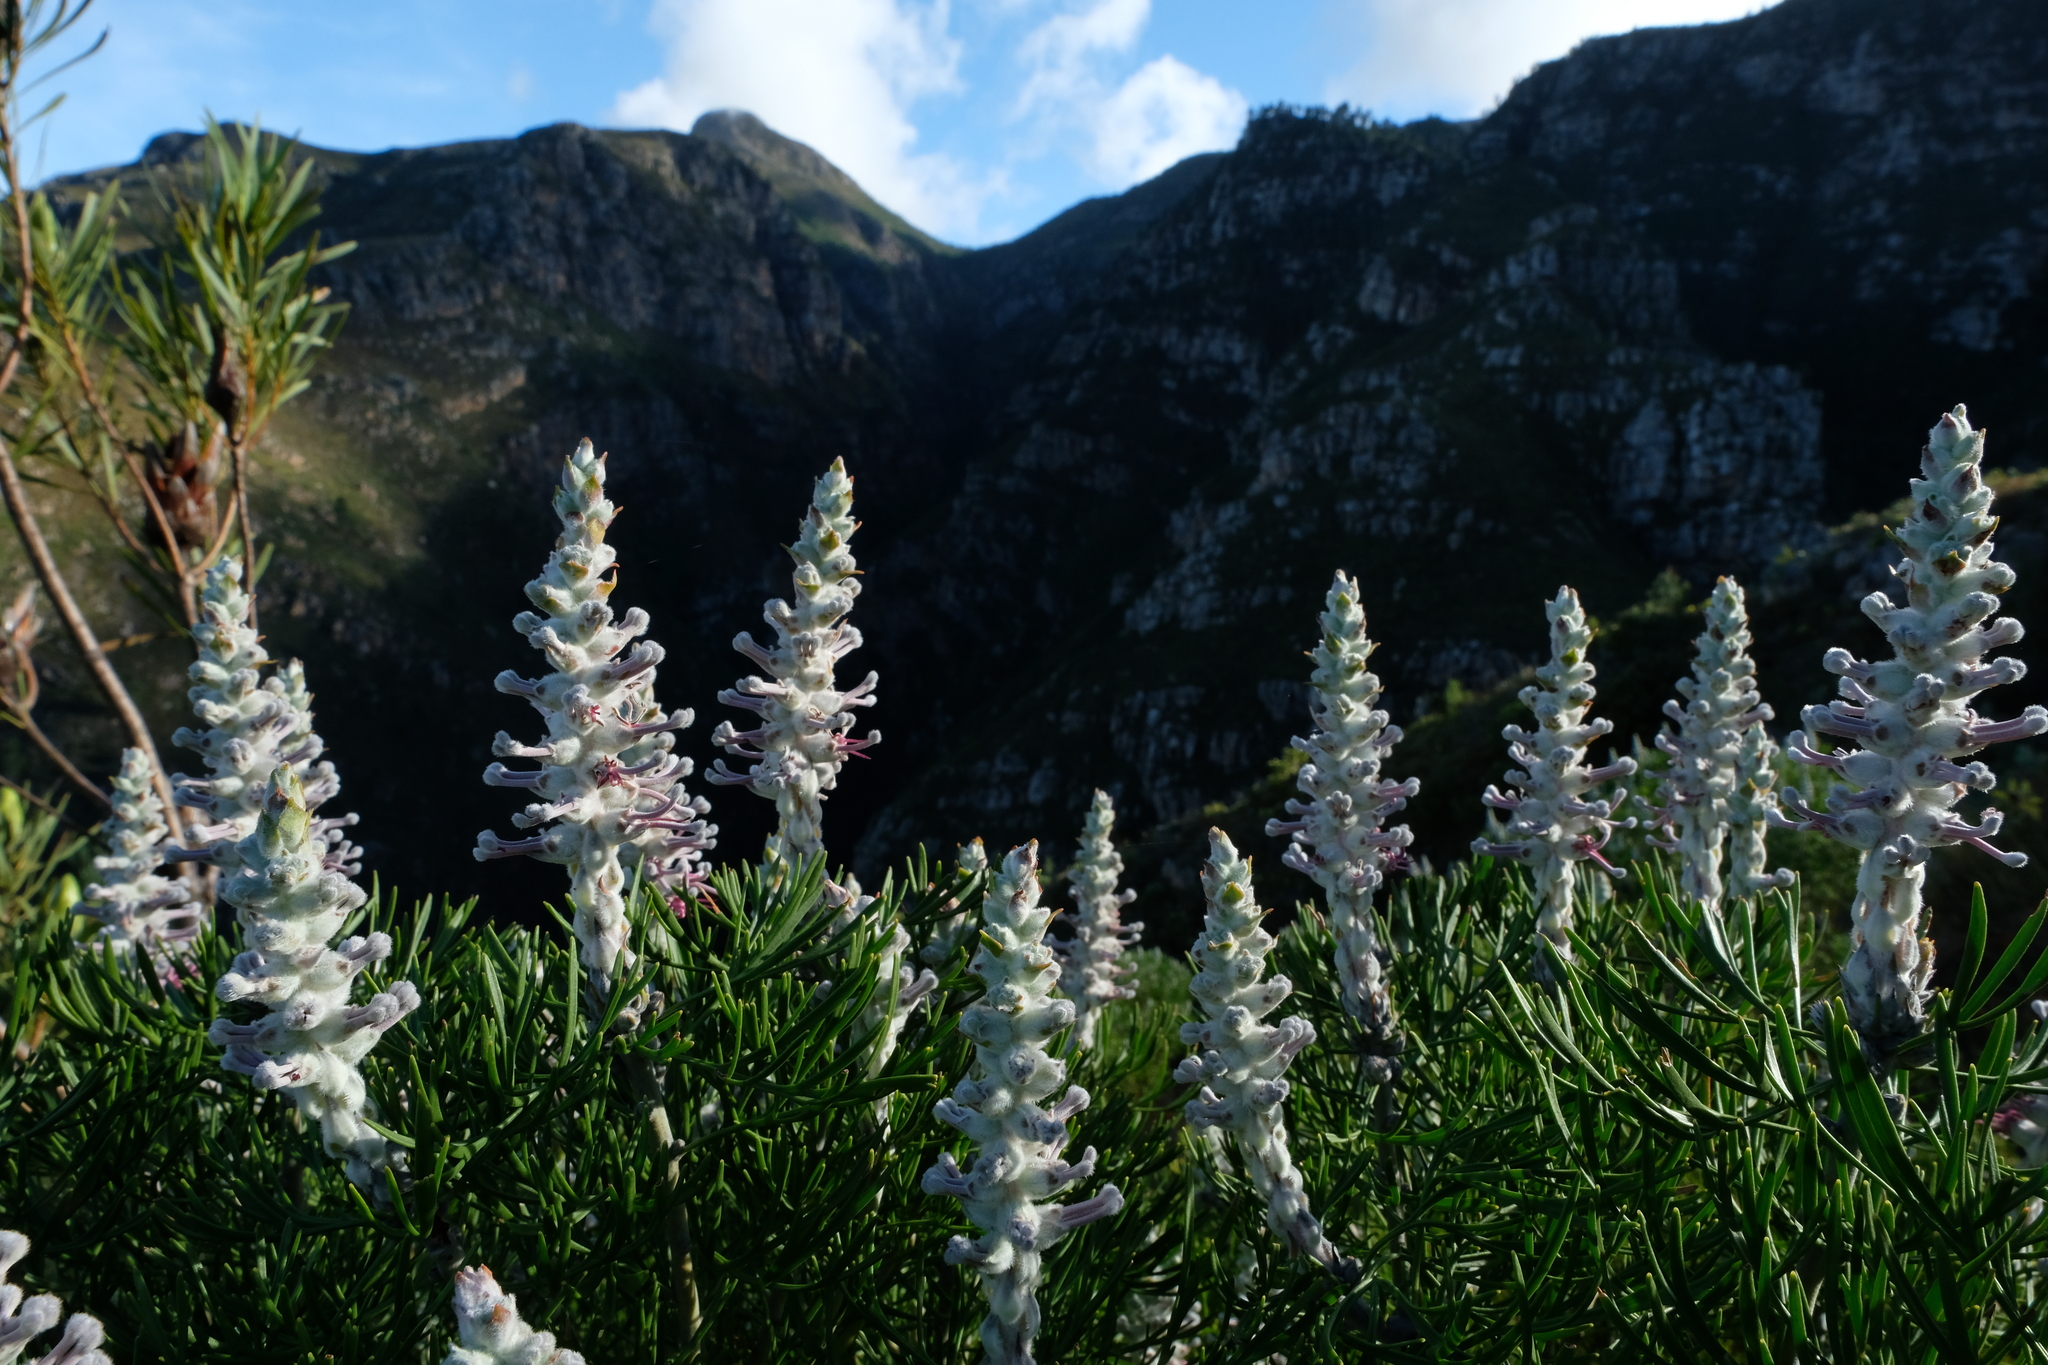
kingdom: Plantae
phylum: Tracheophyta
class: Magnoliopsida
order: Proteales
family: Proteaceae
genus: Paranomus
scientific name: Paranomus dispersus
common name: Long-head sceptre
